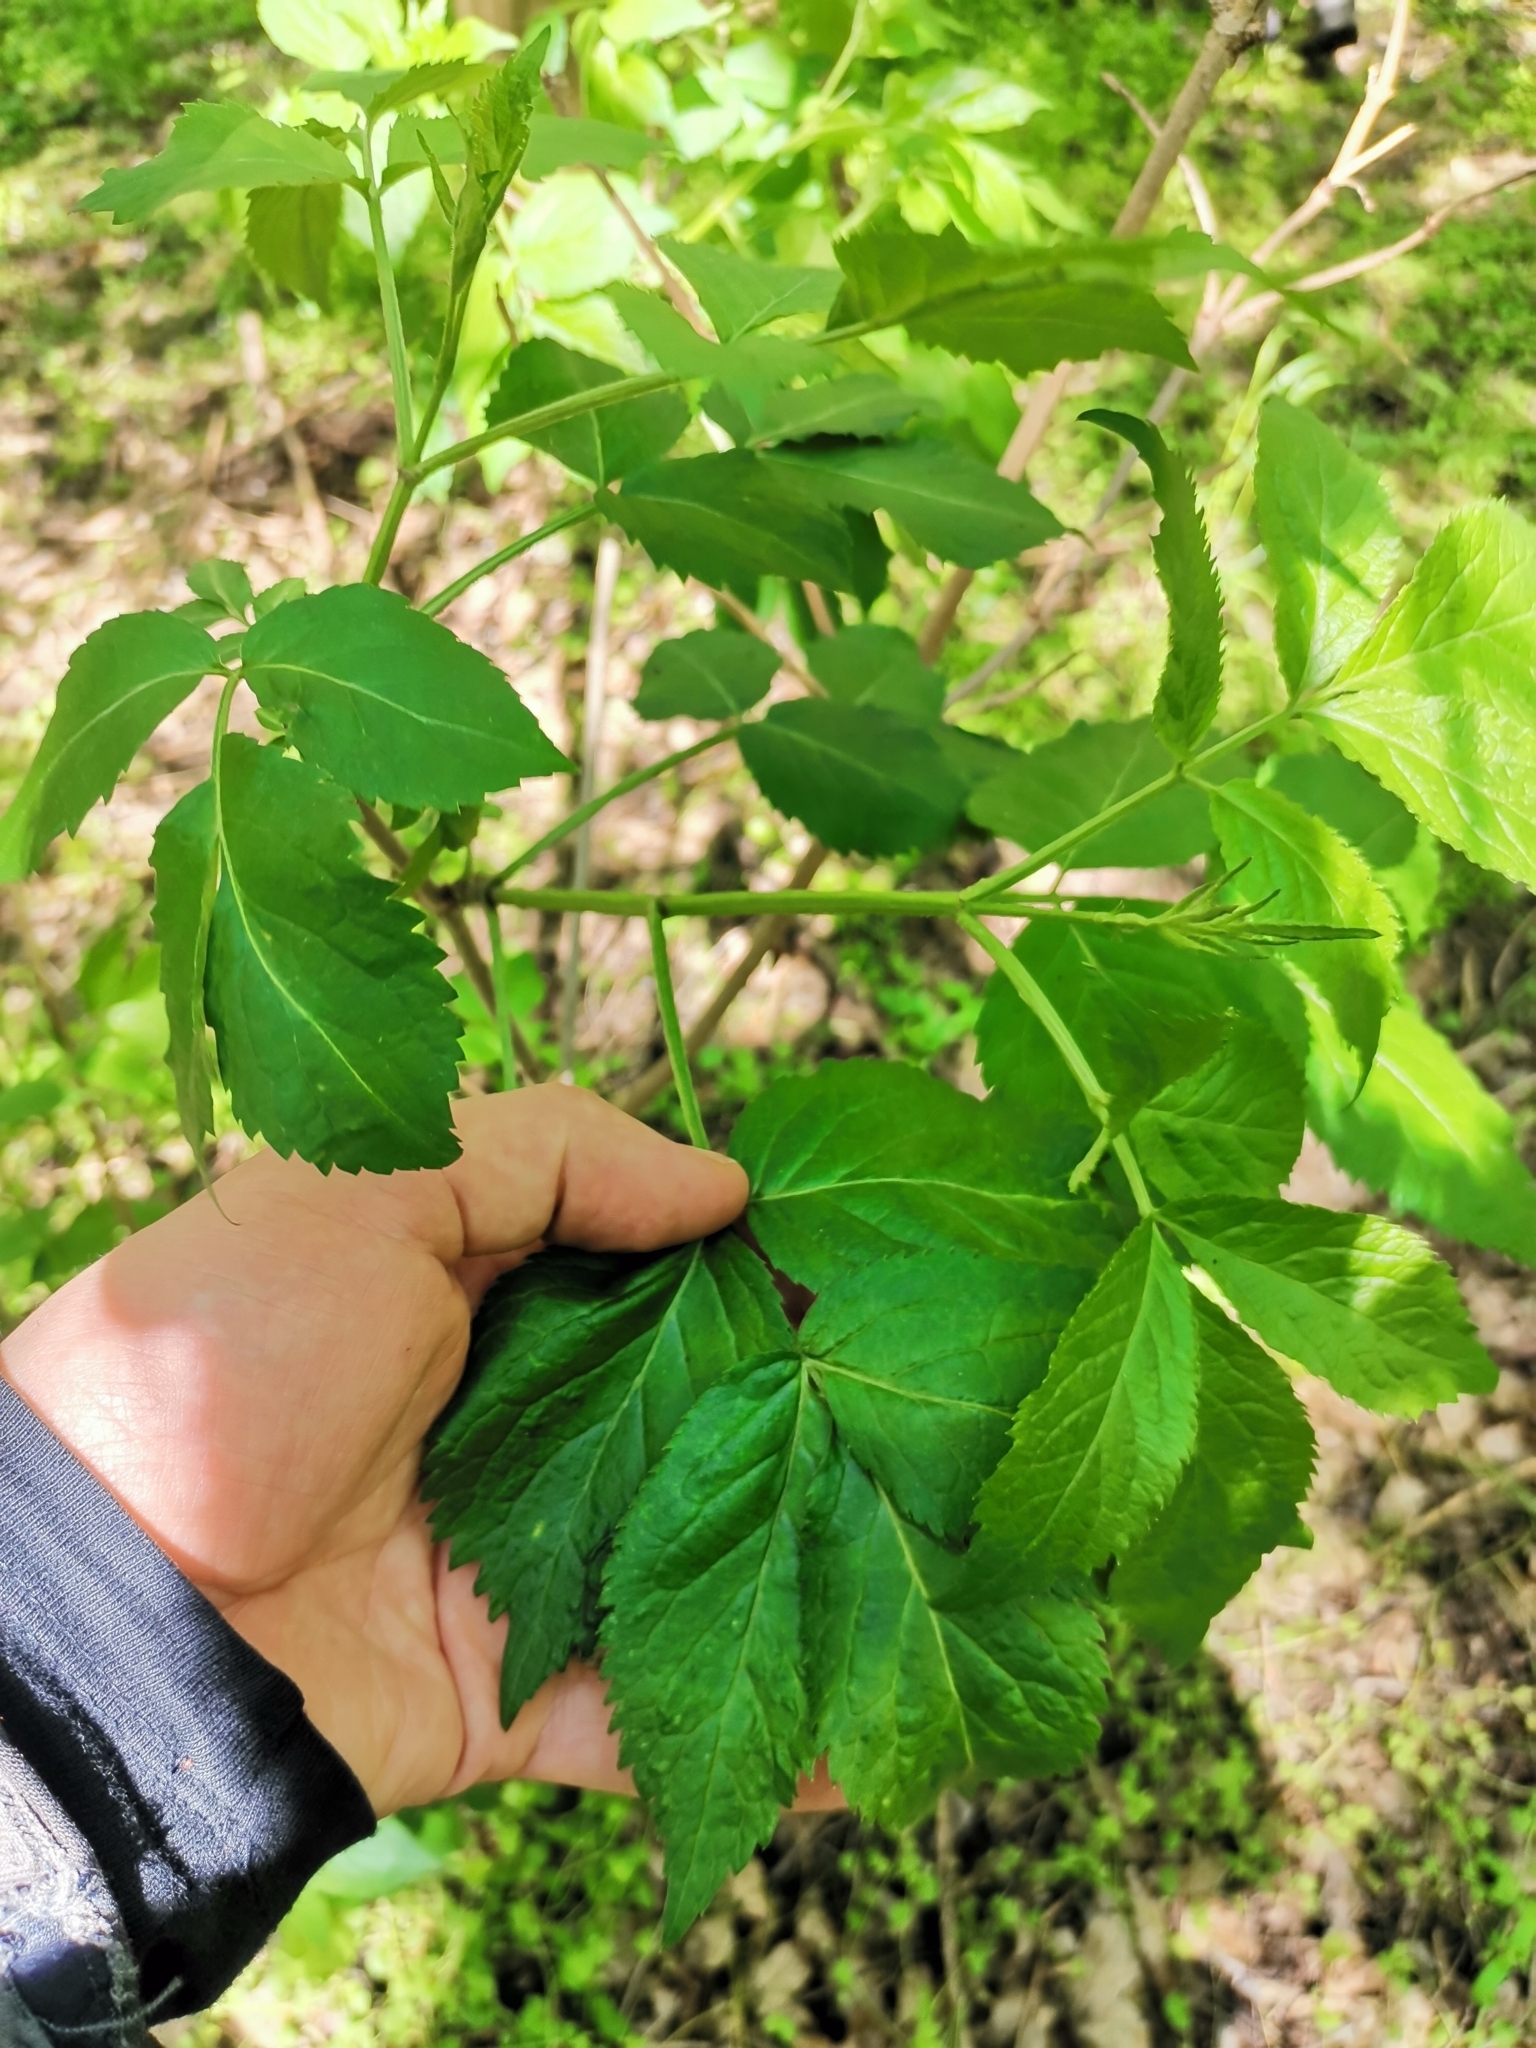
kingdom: Plantae
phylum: Tracheophyta
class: Magnoliopsida
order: Dipsacales
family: Viburnaceae
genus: Sambucus
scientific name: Sambucus nigra
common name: Elder
